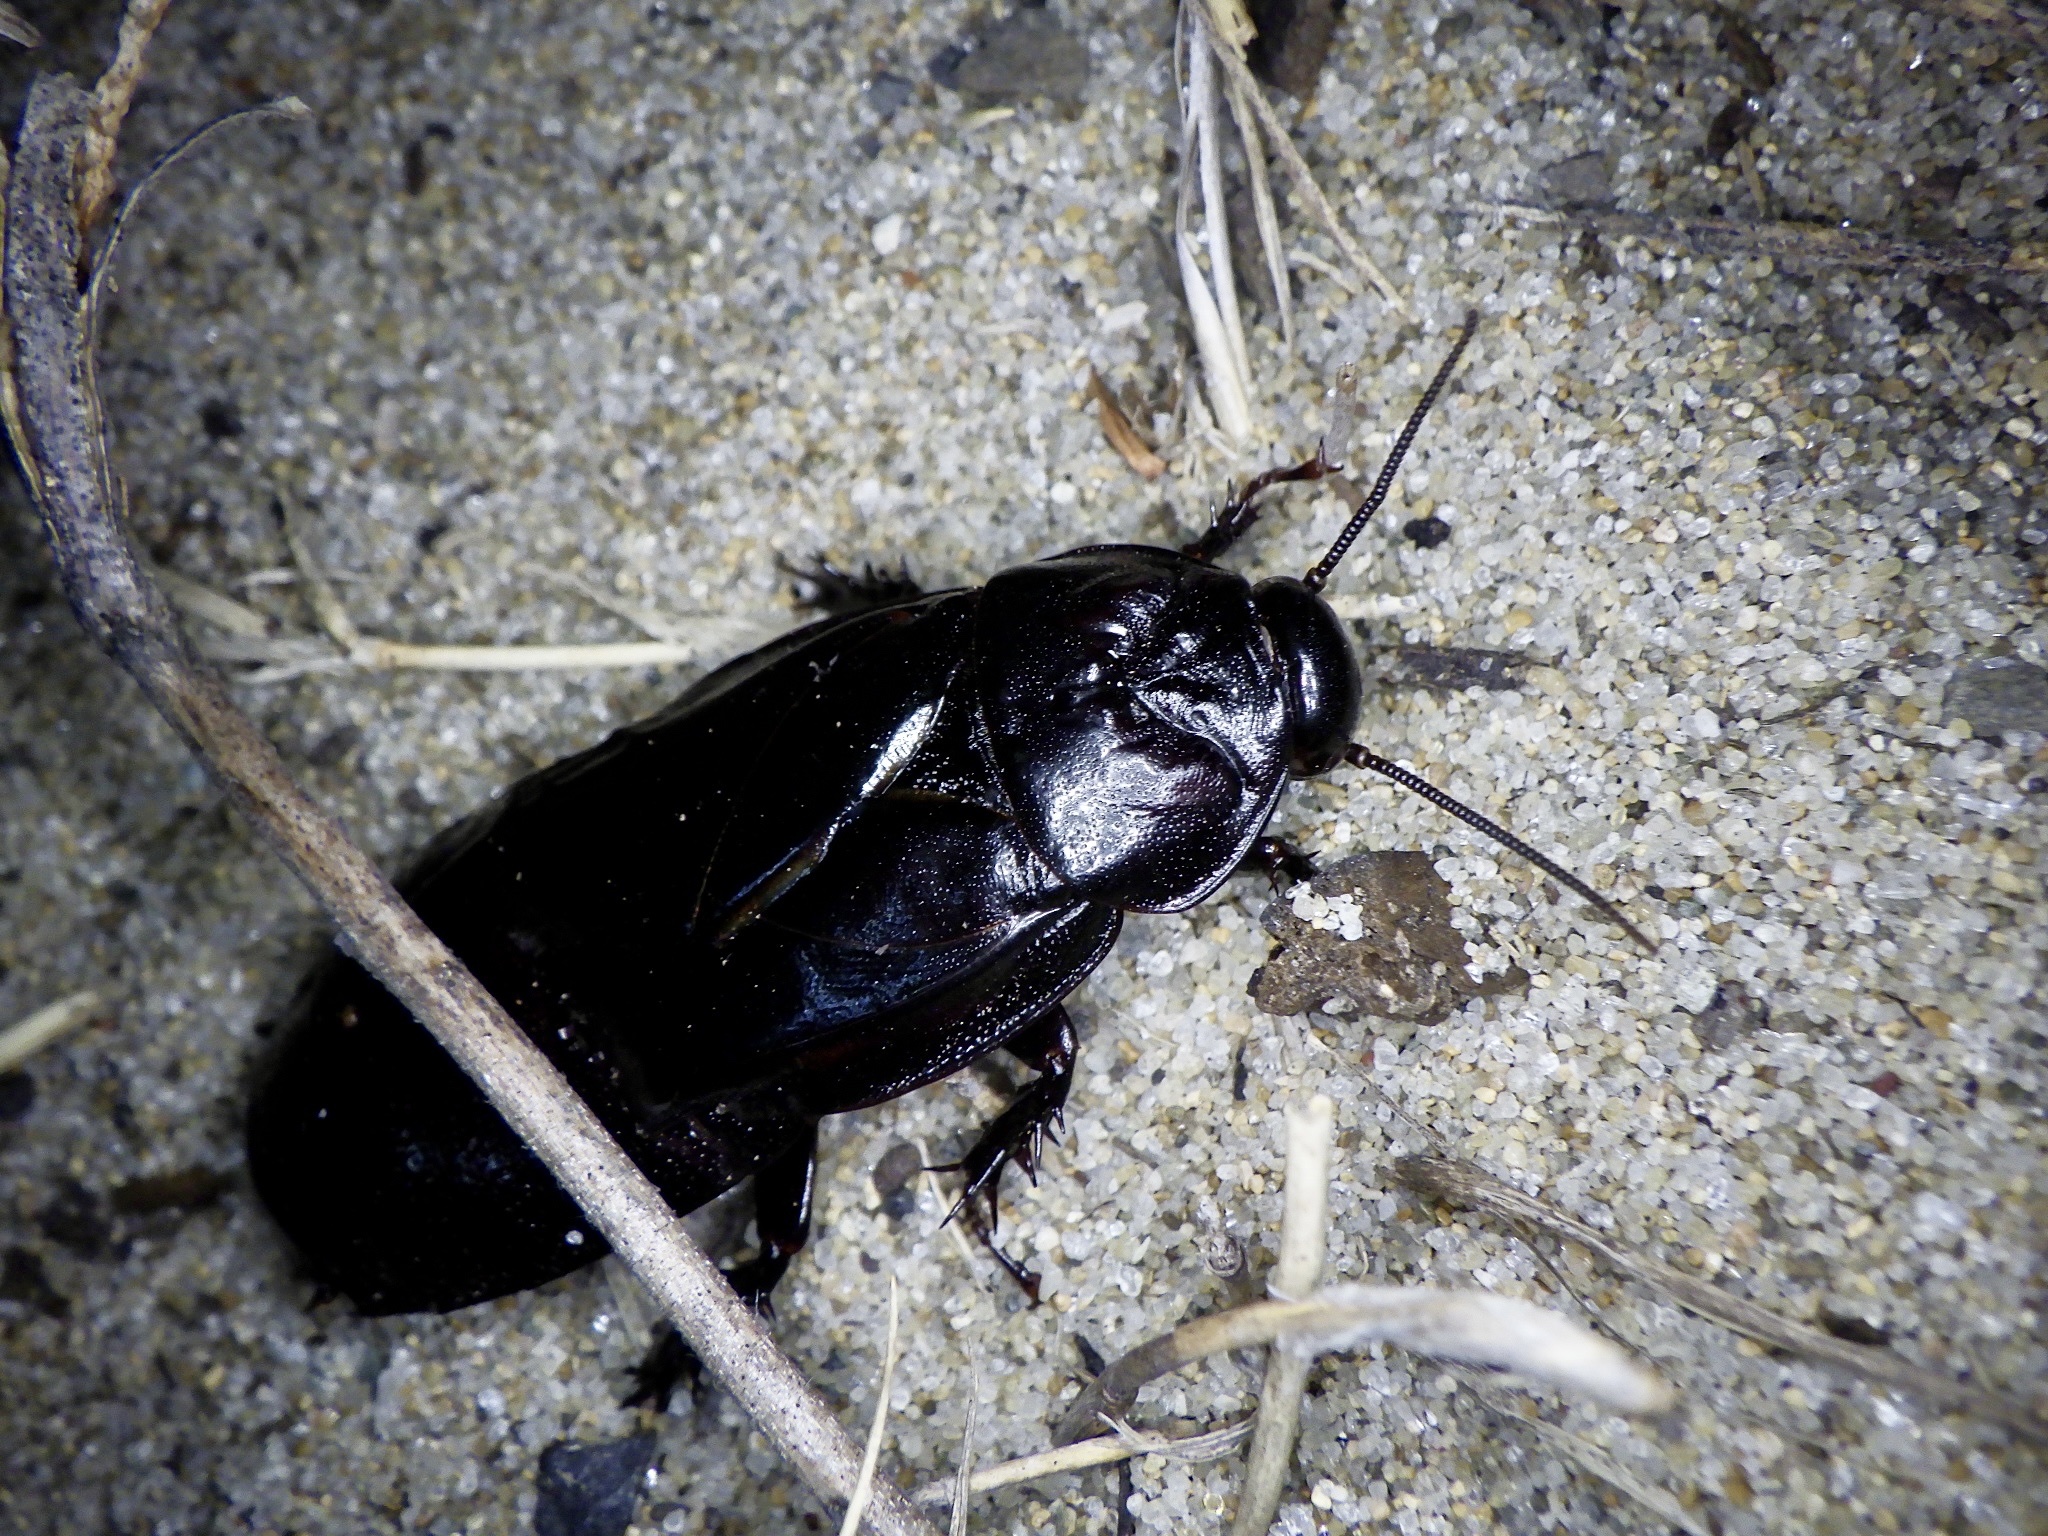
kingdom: Animalia
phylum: Arthropoda
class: Insecta
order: Blattodea
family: Blaberidae
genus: Panesthia
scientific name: Panesthia angustipennis
